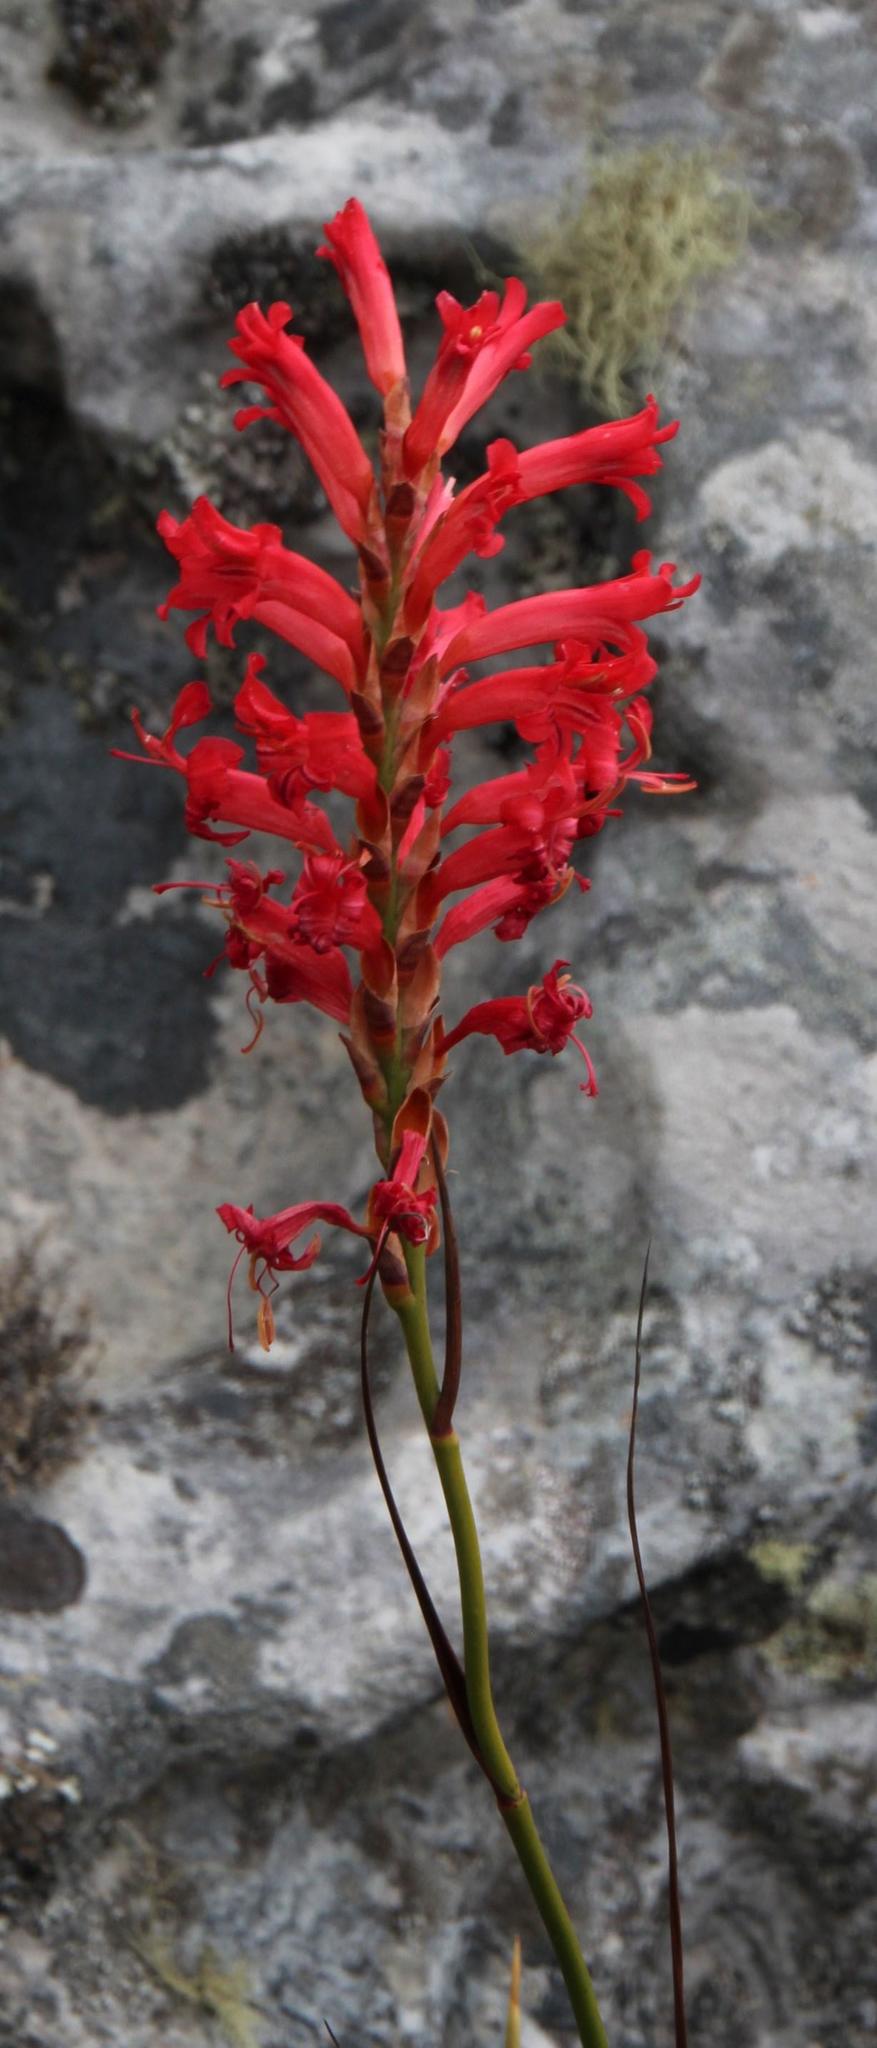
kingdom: Plantae
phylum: Tracheophyta
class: Liliopsida
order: Asparagales
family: Iridaceae
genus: Tritoniopsis
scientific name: Tritoniopsis triticea
